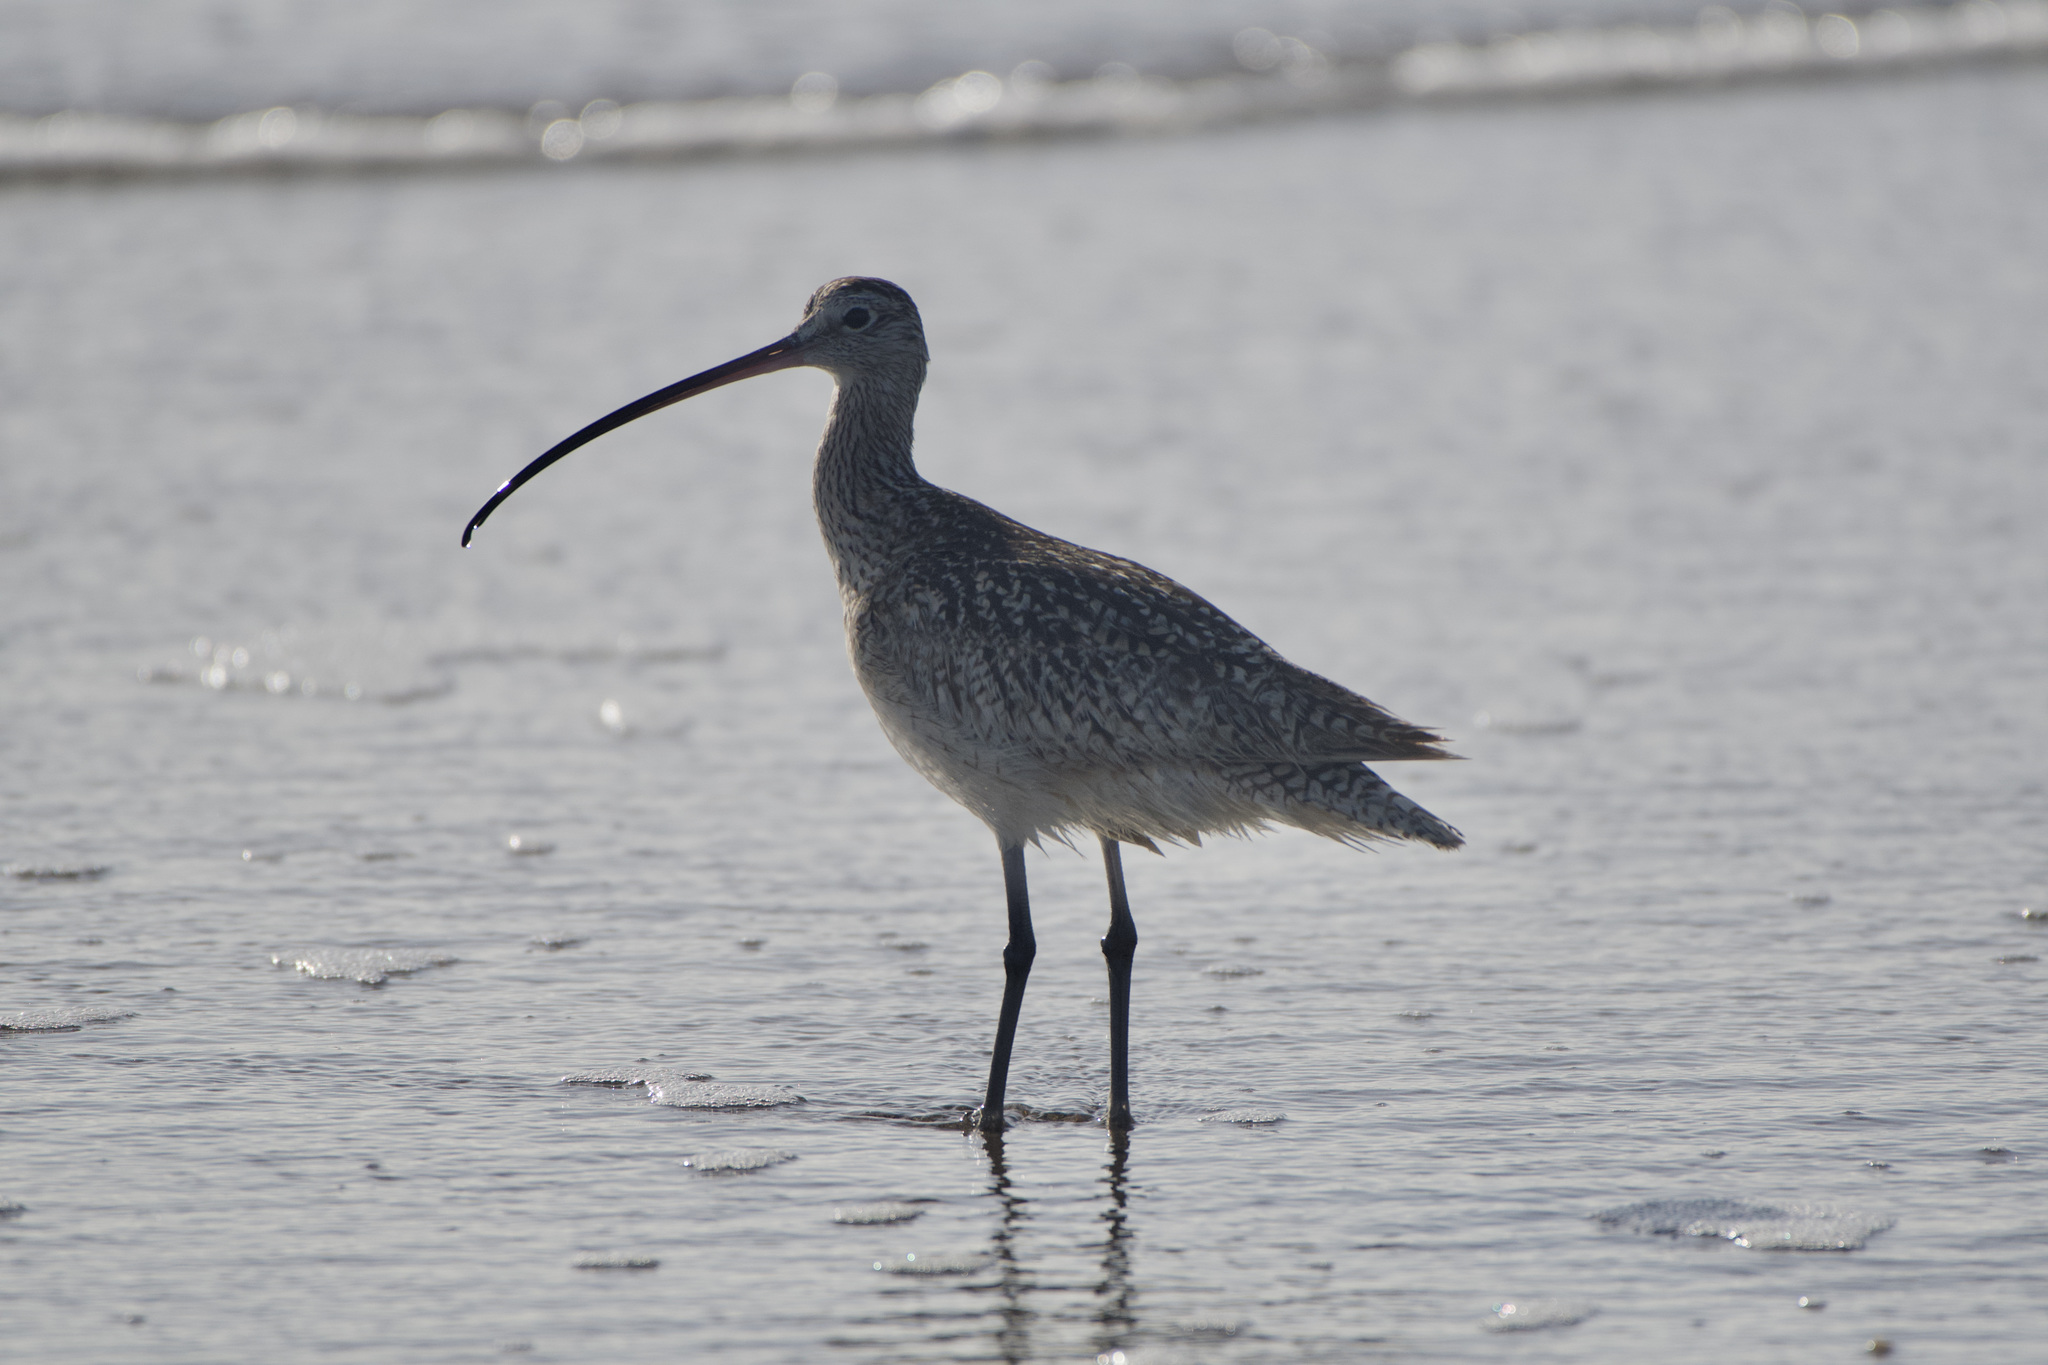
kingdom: Animalia
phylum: Chordata
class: Aves
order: Charadriiformes
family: Scolopacidae
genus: Numenius
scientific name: Numenius americanus
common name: Long-billed curlew
